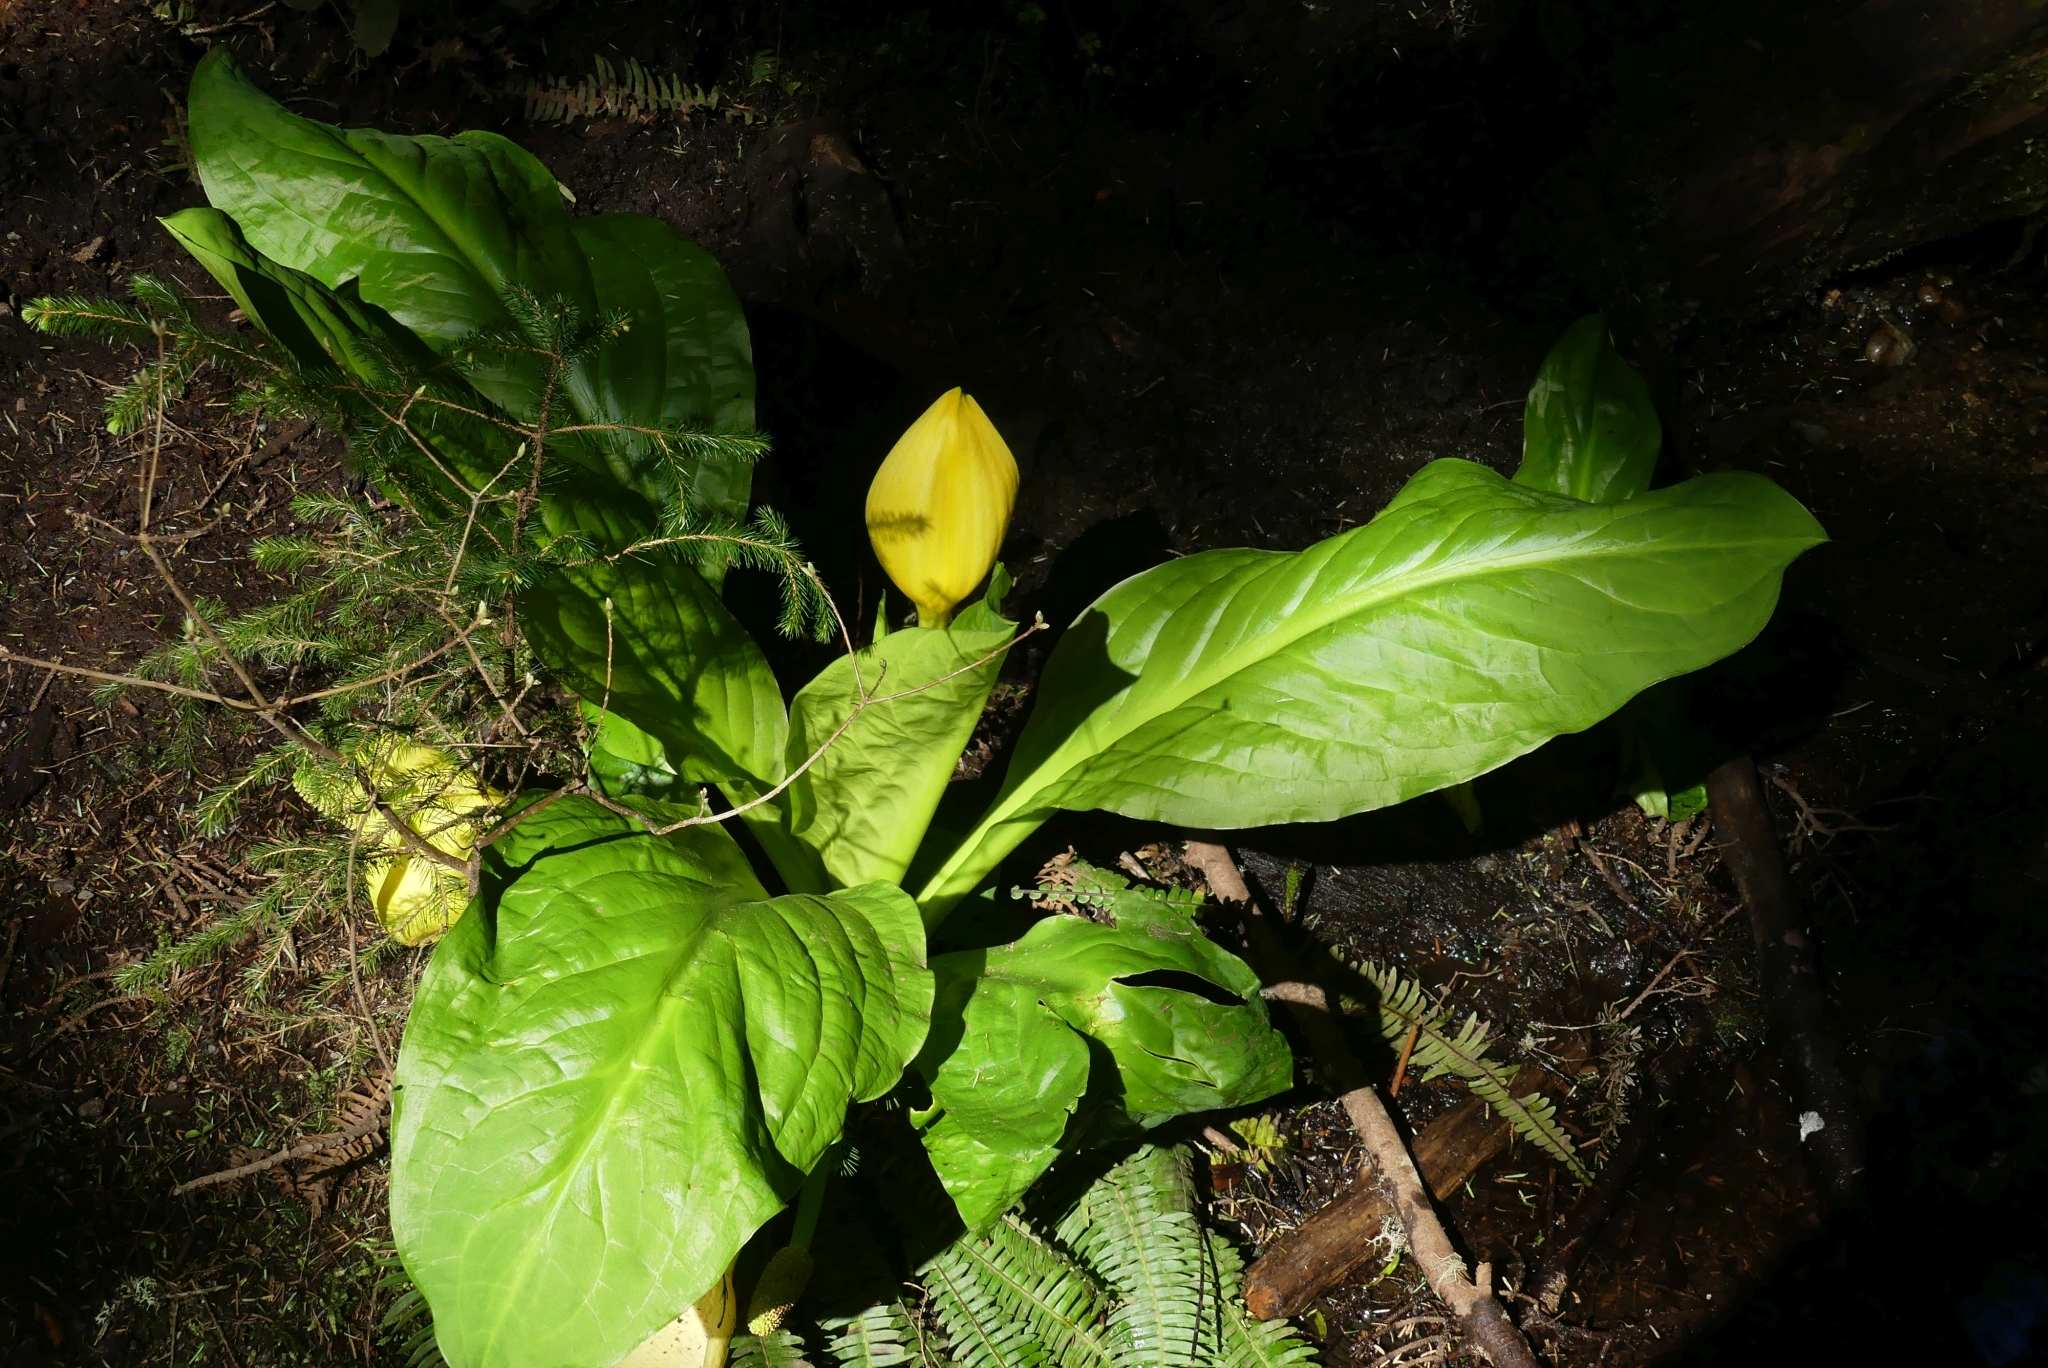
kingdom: Plantae
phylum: Tracheophyta
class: Liliopsida
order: Alismatales
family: Araceae
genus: Lysichiton
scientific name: Lysichiton americanus
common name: American skunk cabbage
